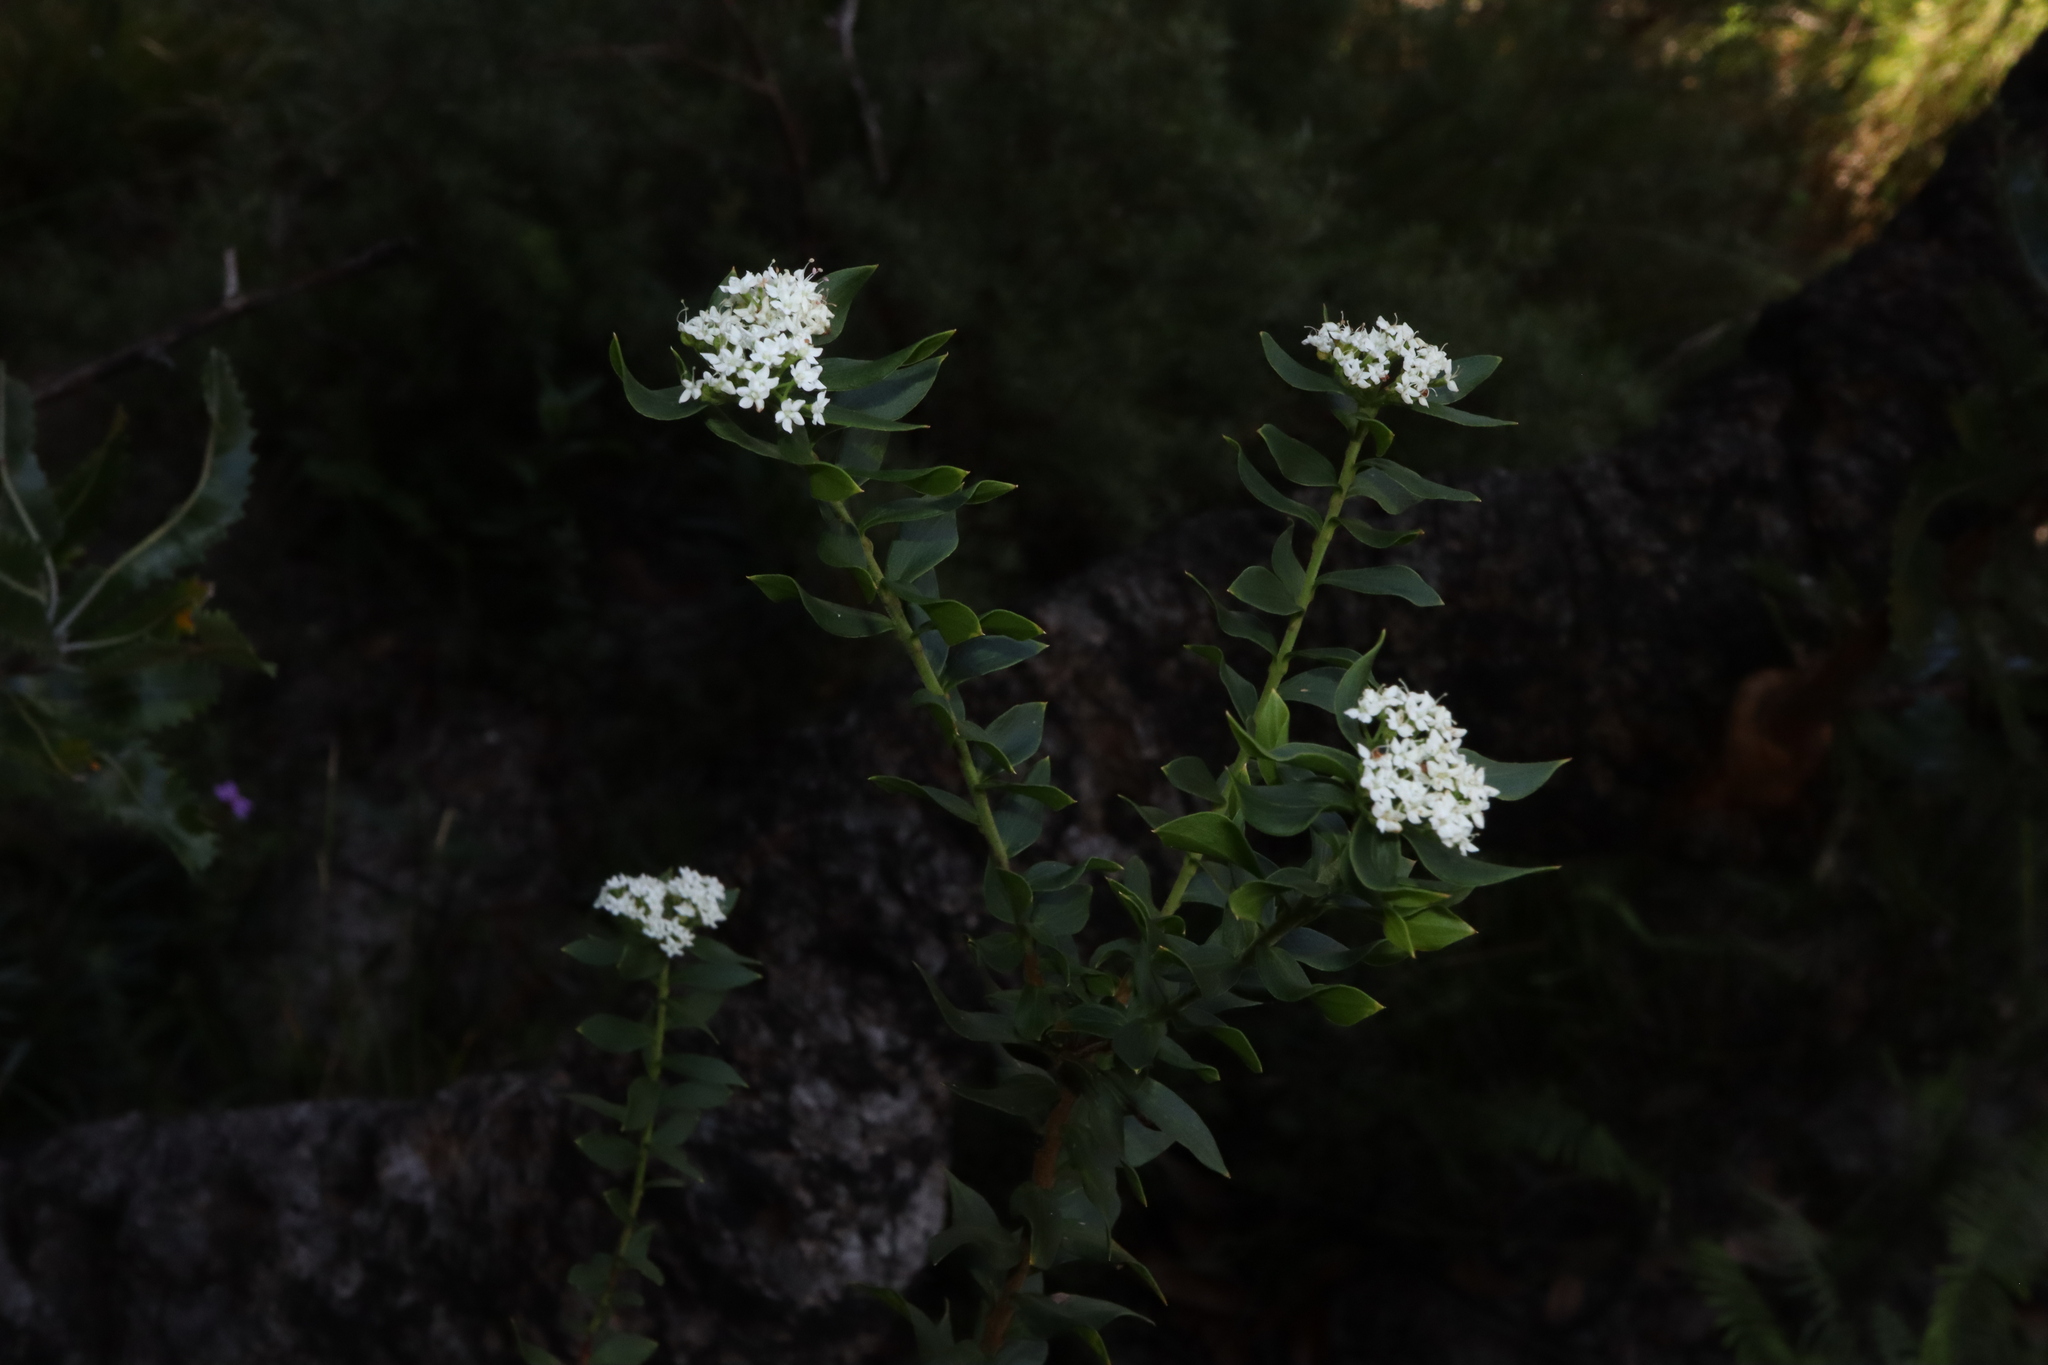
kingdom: Plantae
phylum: Tracheophyta
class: Magnoliopsida
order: Apiales
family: Apiaceae
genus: Platysace
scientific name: Platysace lanceolata
